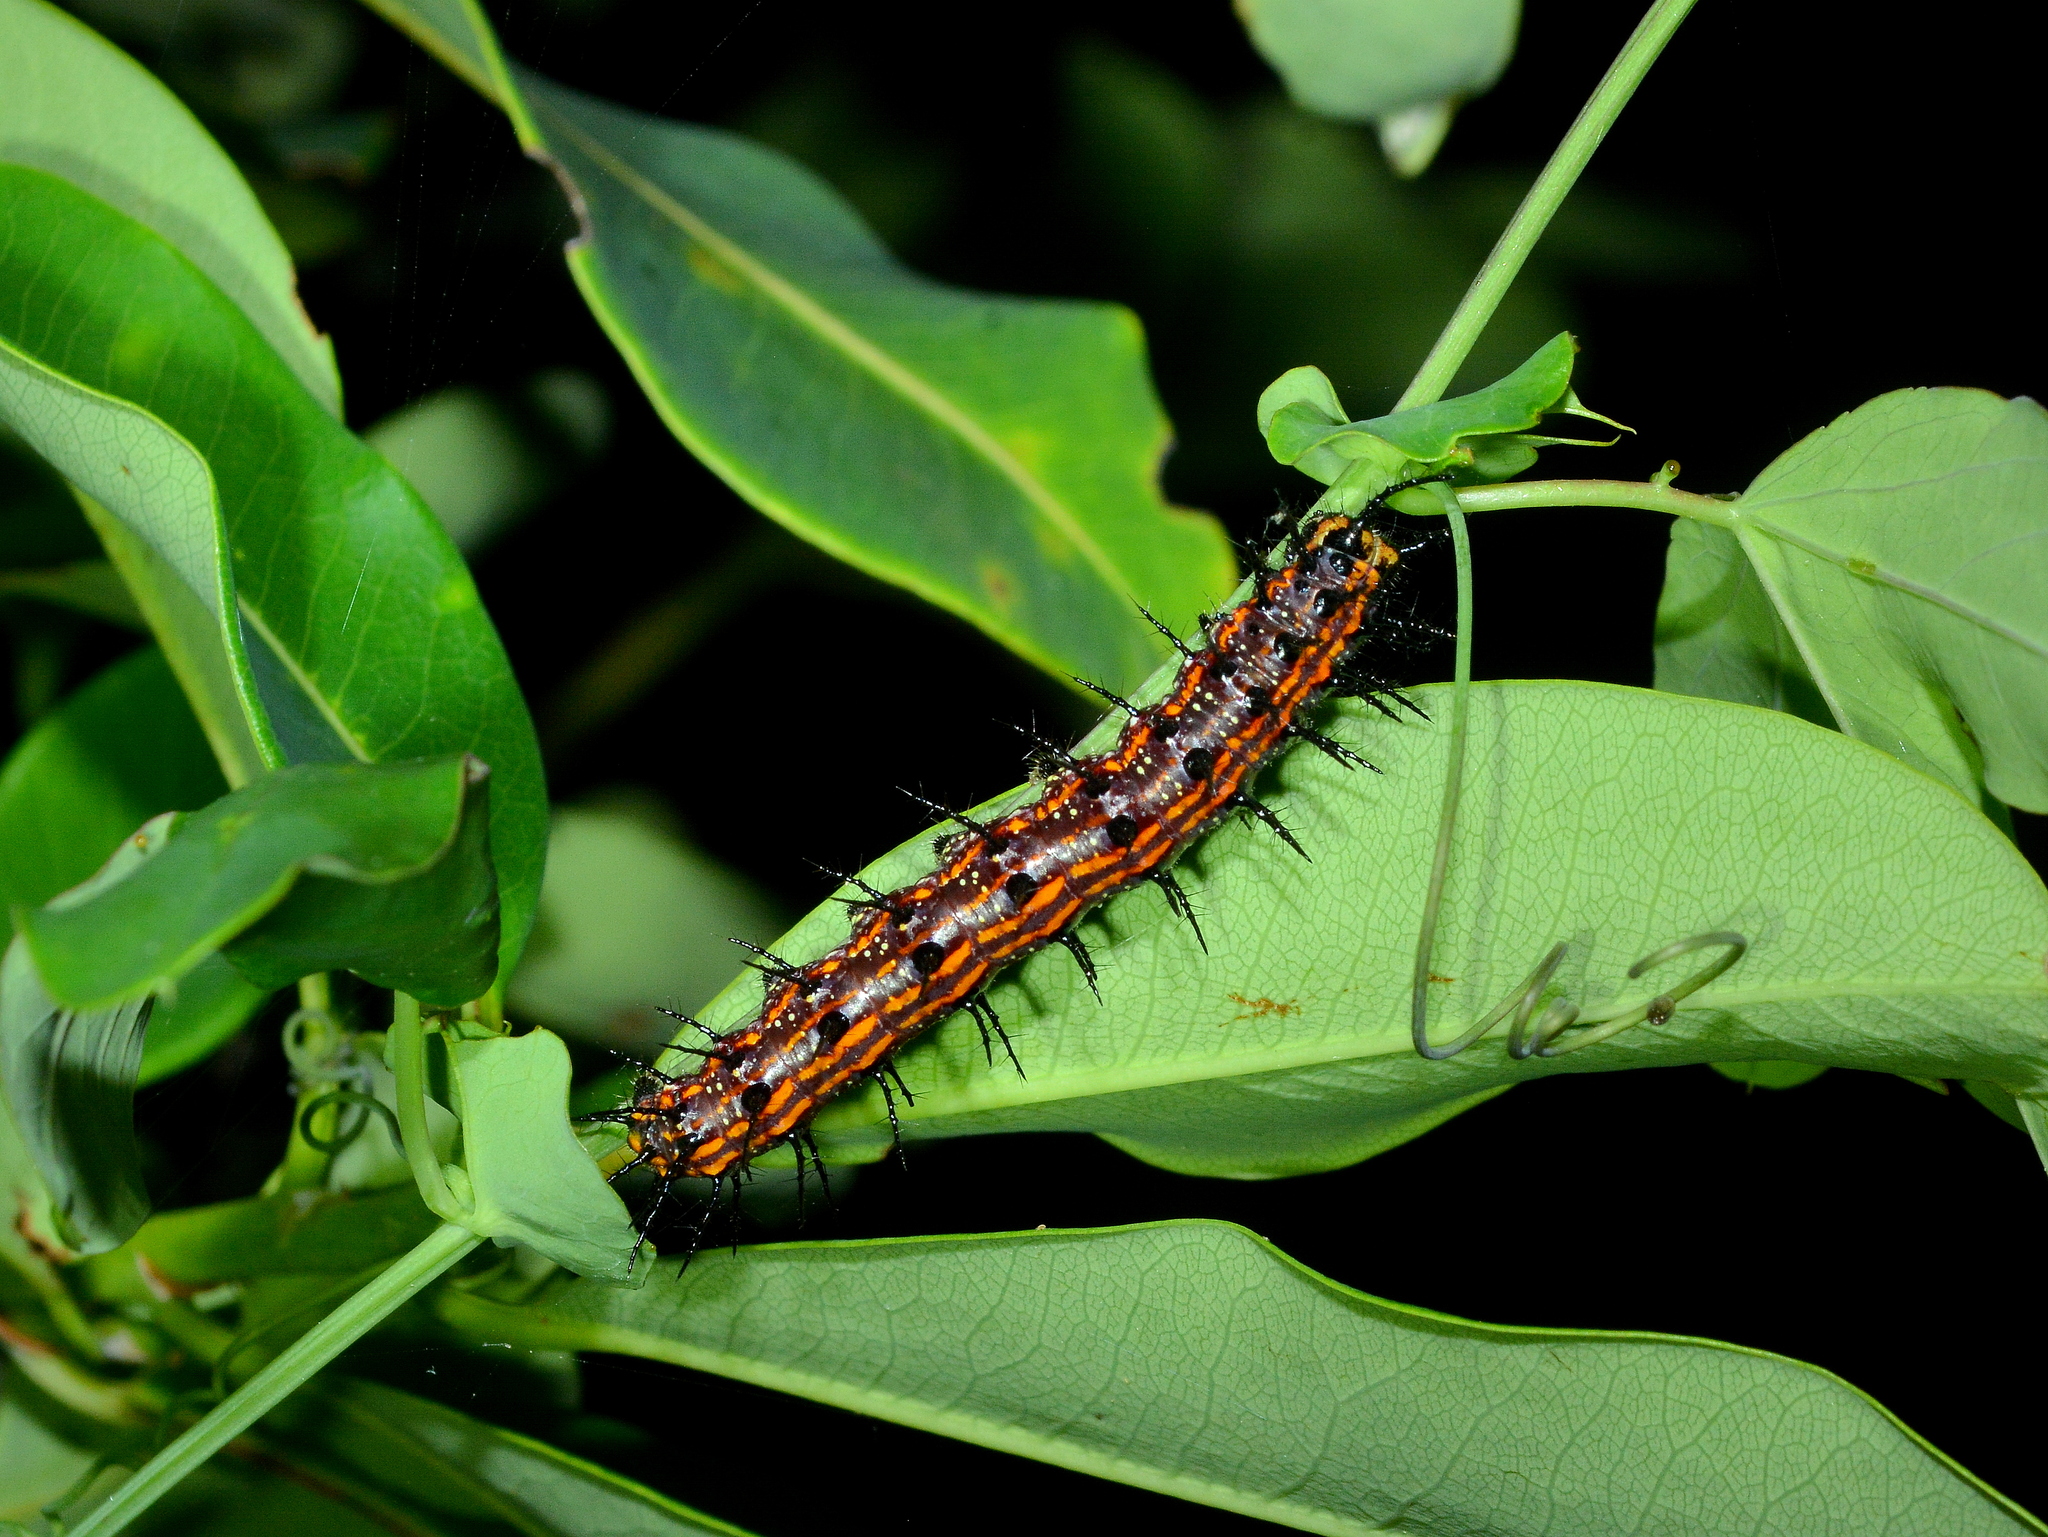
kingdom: Animalia
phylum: Arthropoda
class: Insecta
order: Lepidoptera
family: Nymphalidae
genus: Dione
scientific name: Dione vanillae
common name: Gulf fritillary
